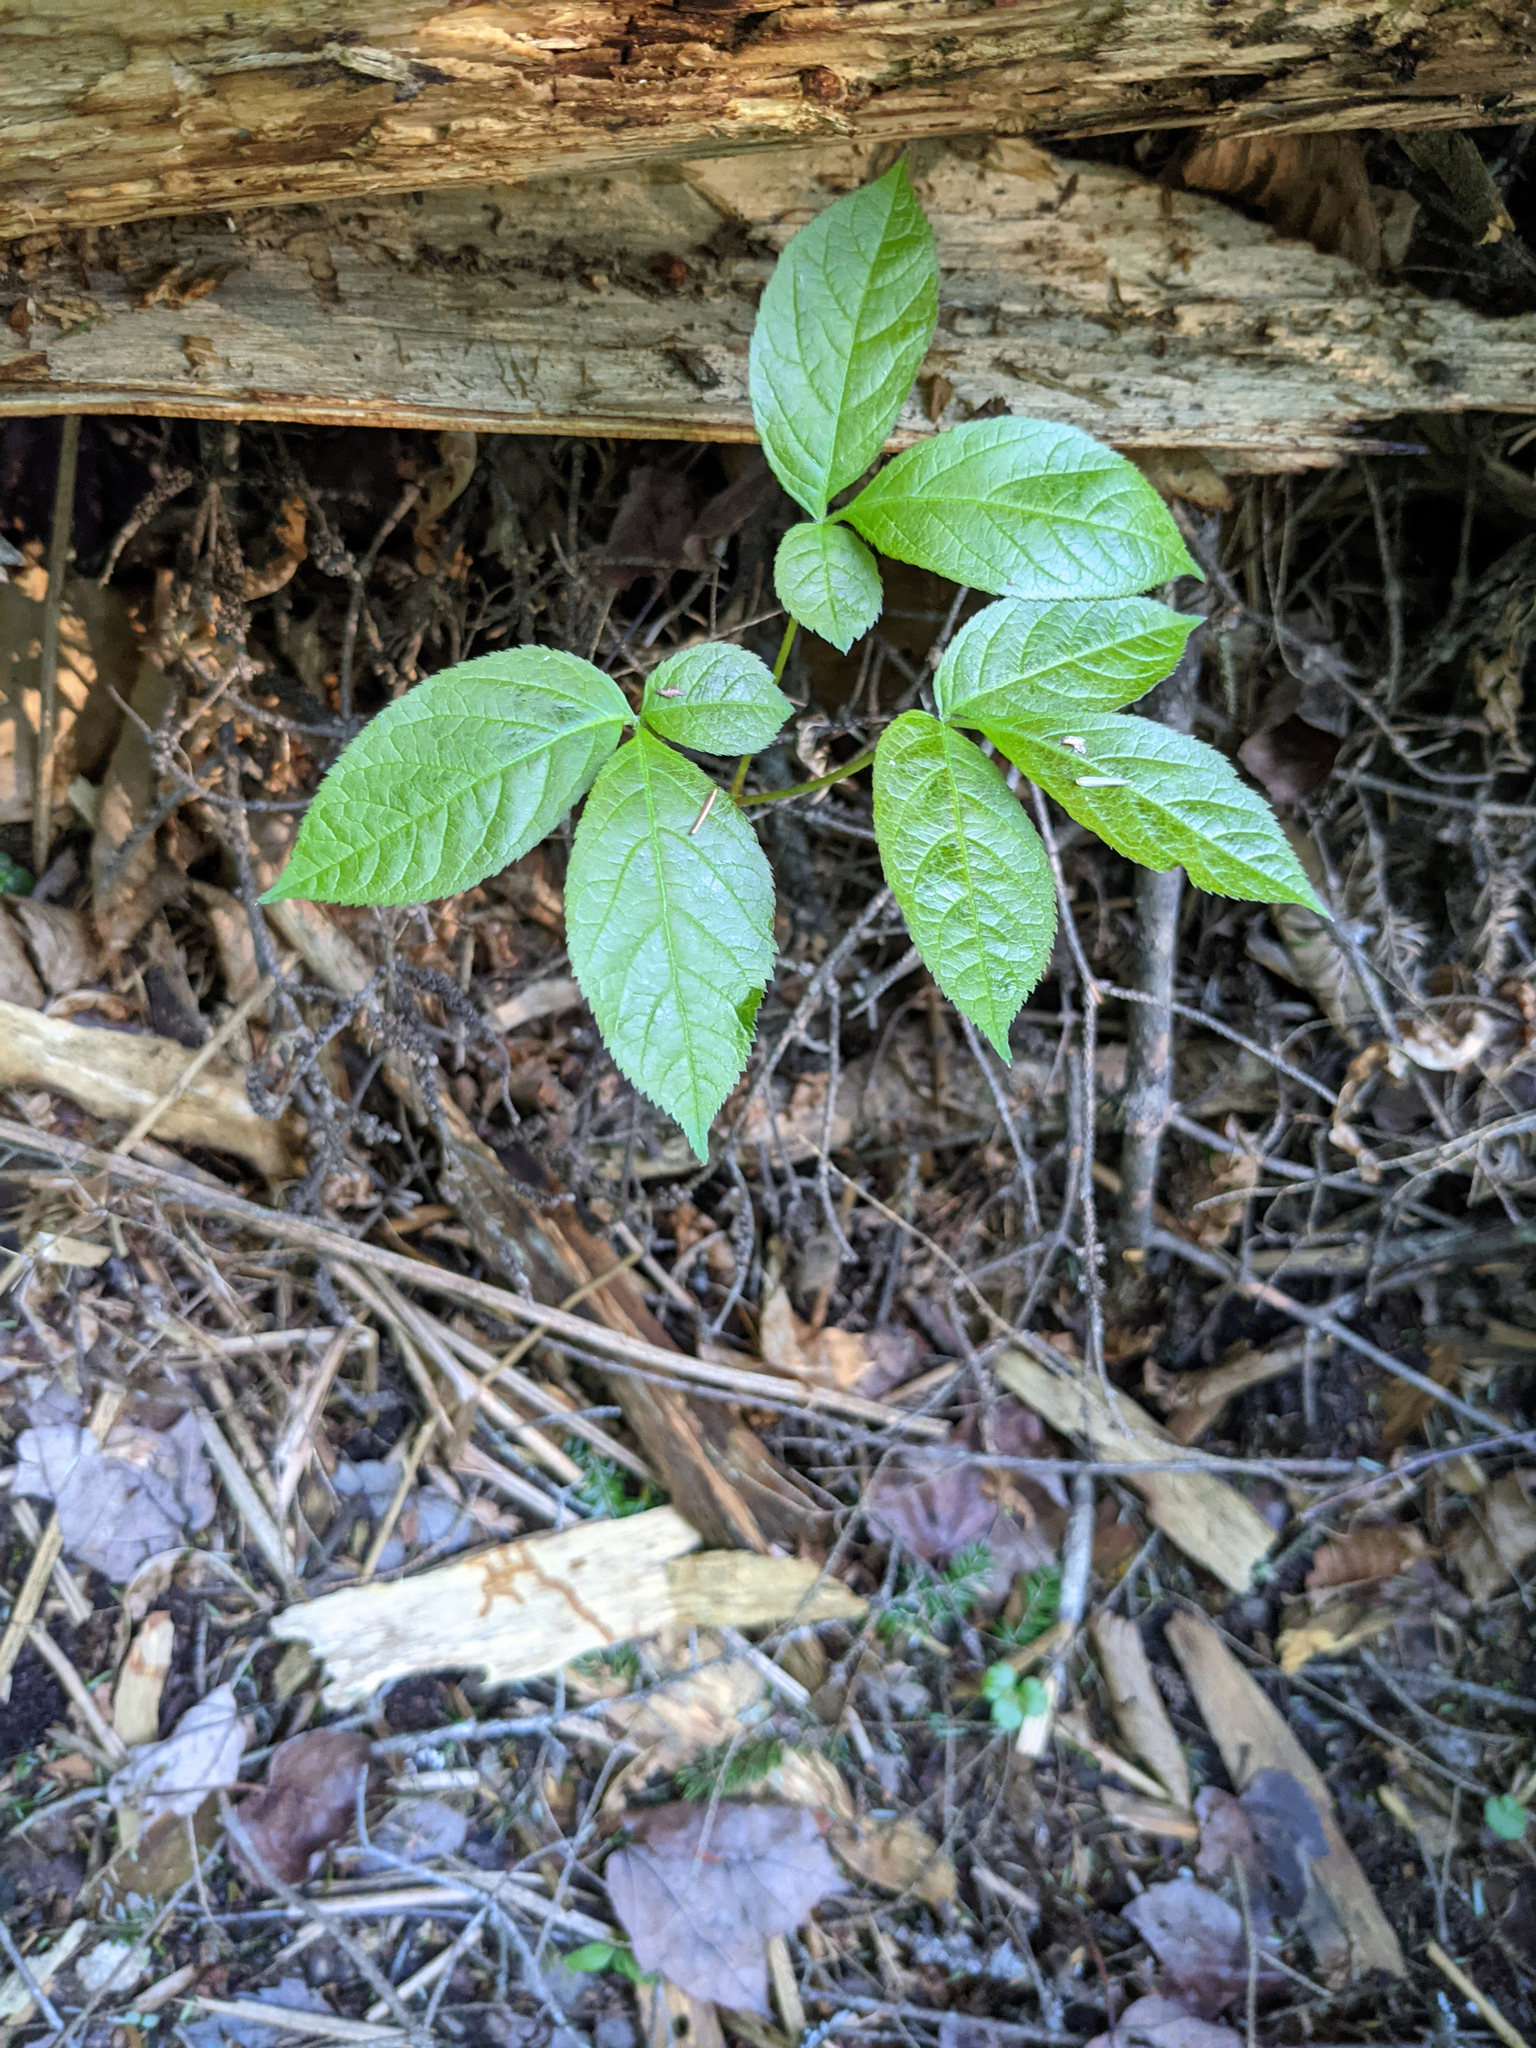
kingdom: Plantae
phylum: Tracheophyta
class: Magnoliopsida
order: Apiales
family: Araliaceae
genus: Aralia
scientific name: Aralia nudicaulis
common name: Wild sarsaparilla
